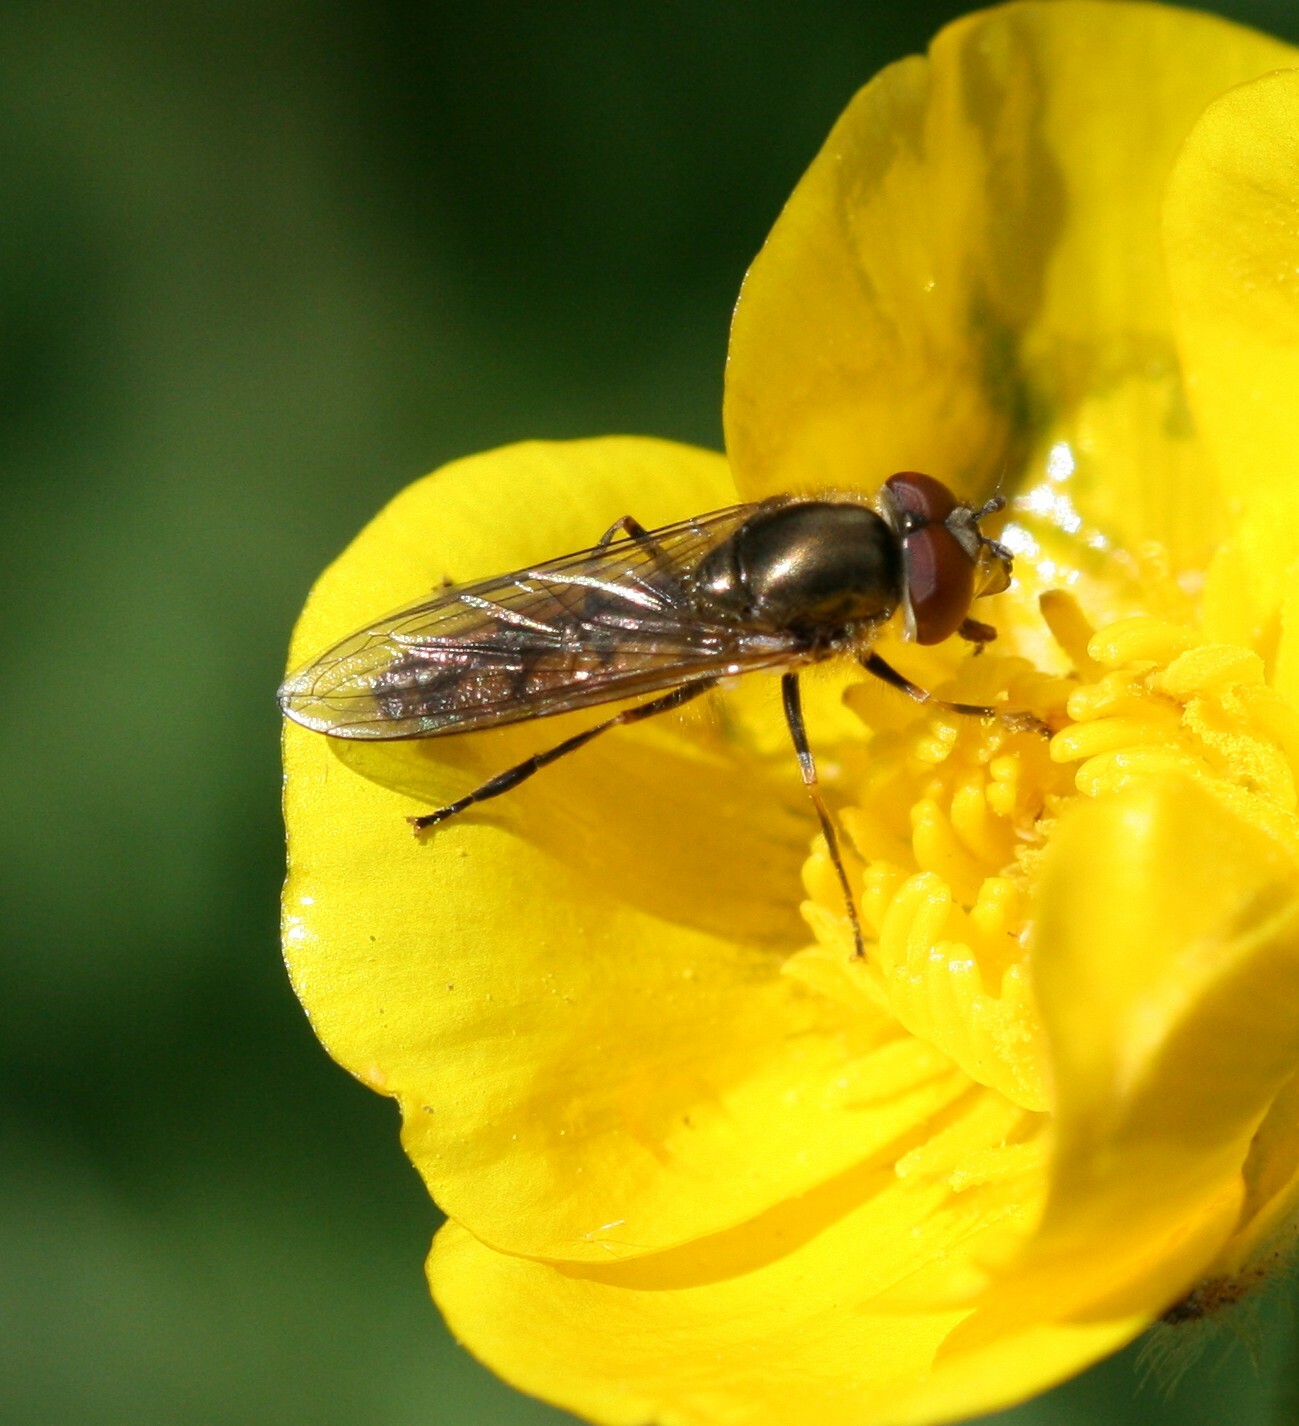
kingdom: Animalia
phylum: Arthropoda
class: Insecta
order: Diptera
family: Syrphidae
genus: Platycheirus
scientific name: Platycheirus manicatus
